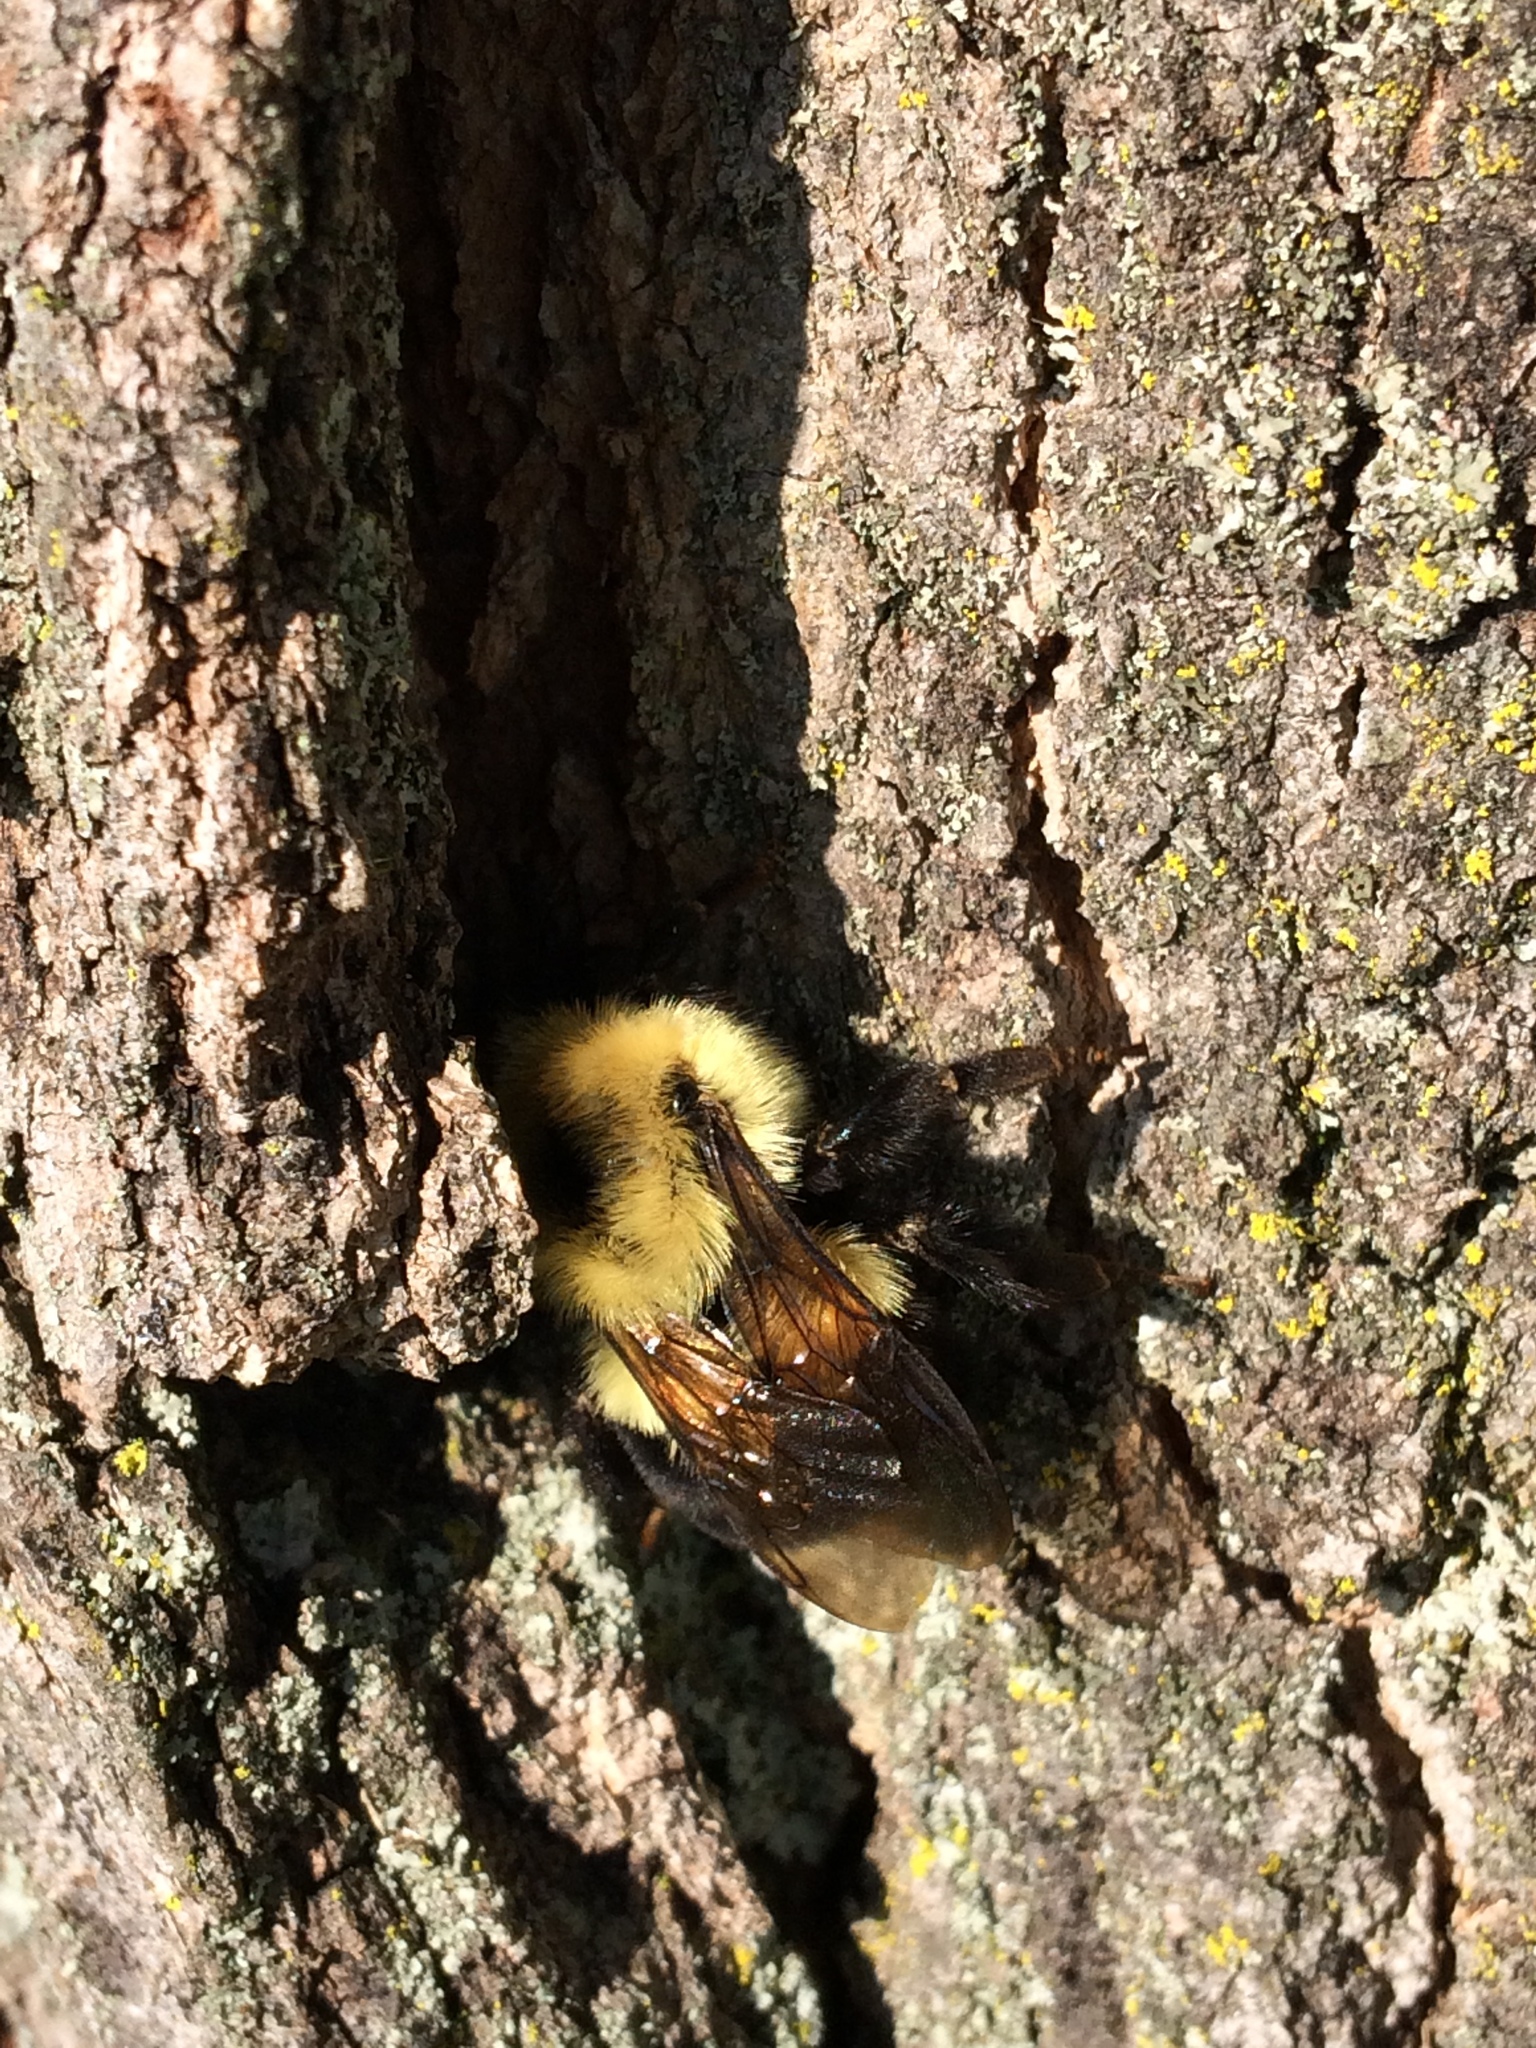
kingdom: Animalia
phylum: Arthropoda
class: Insecta
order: Hymenoptera
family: Apidae
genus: Bombus
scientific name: Bombus bimaculatus
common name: Two-spotted bumble bee
